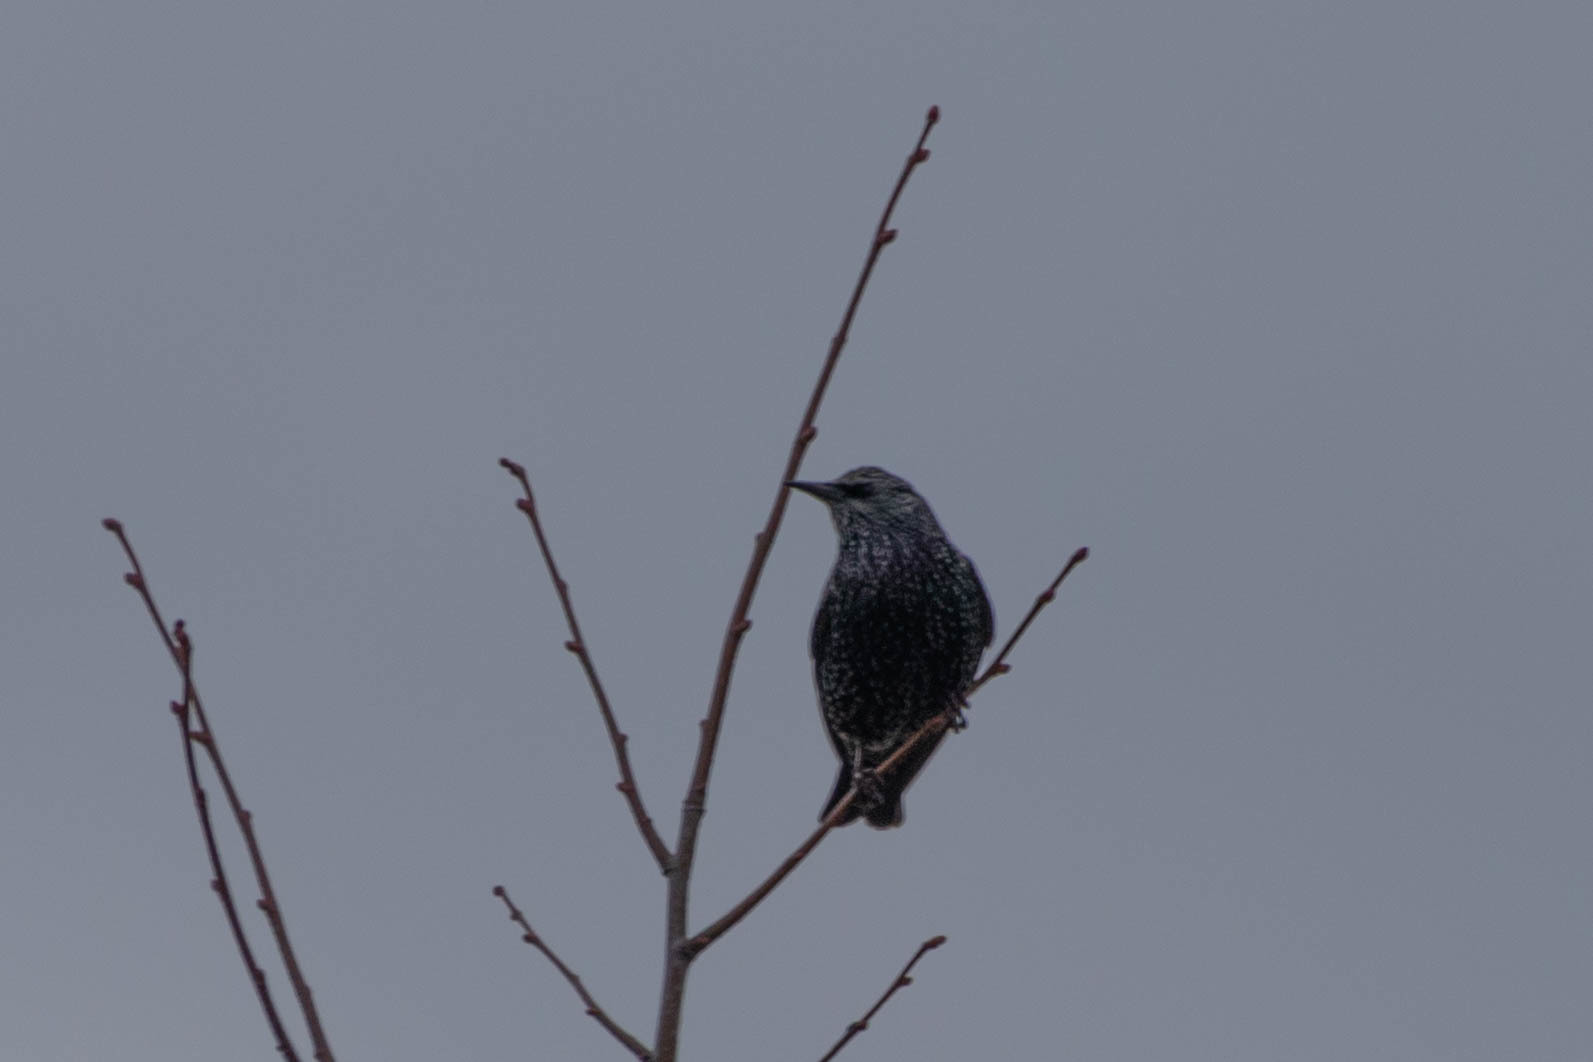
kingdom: Animalia
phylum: Chordata
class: Aves
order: Passeriformes
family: Sturnidae
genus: Sturnus
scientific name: Sturnus vulgaris
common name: Common starling
